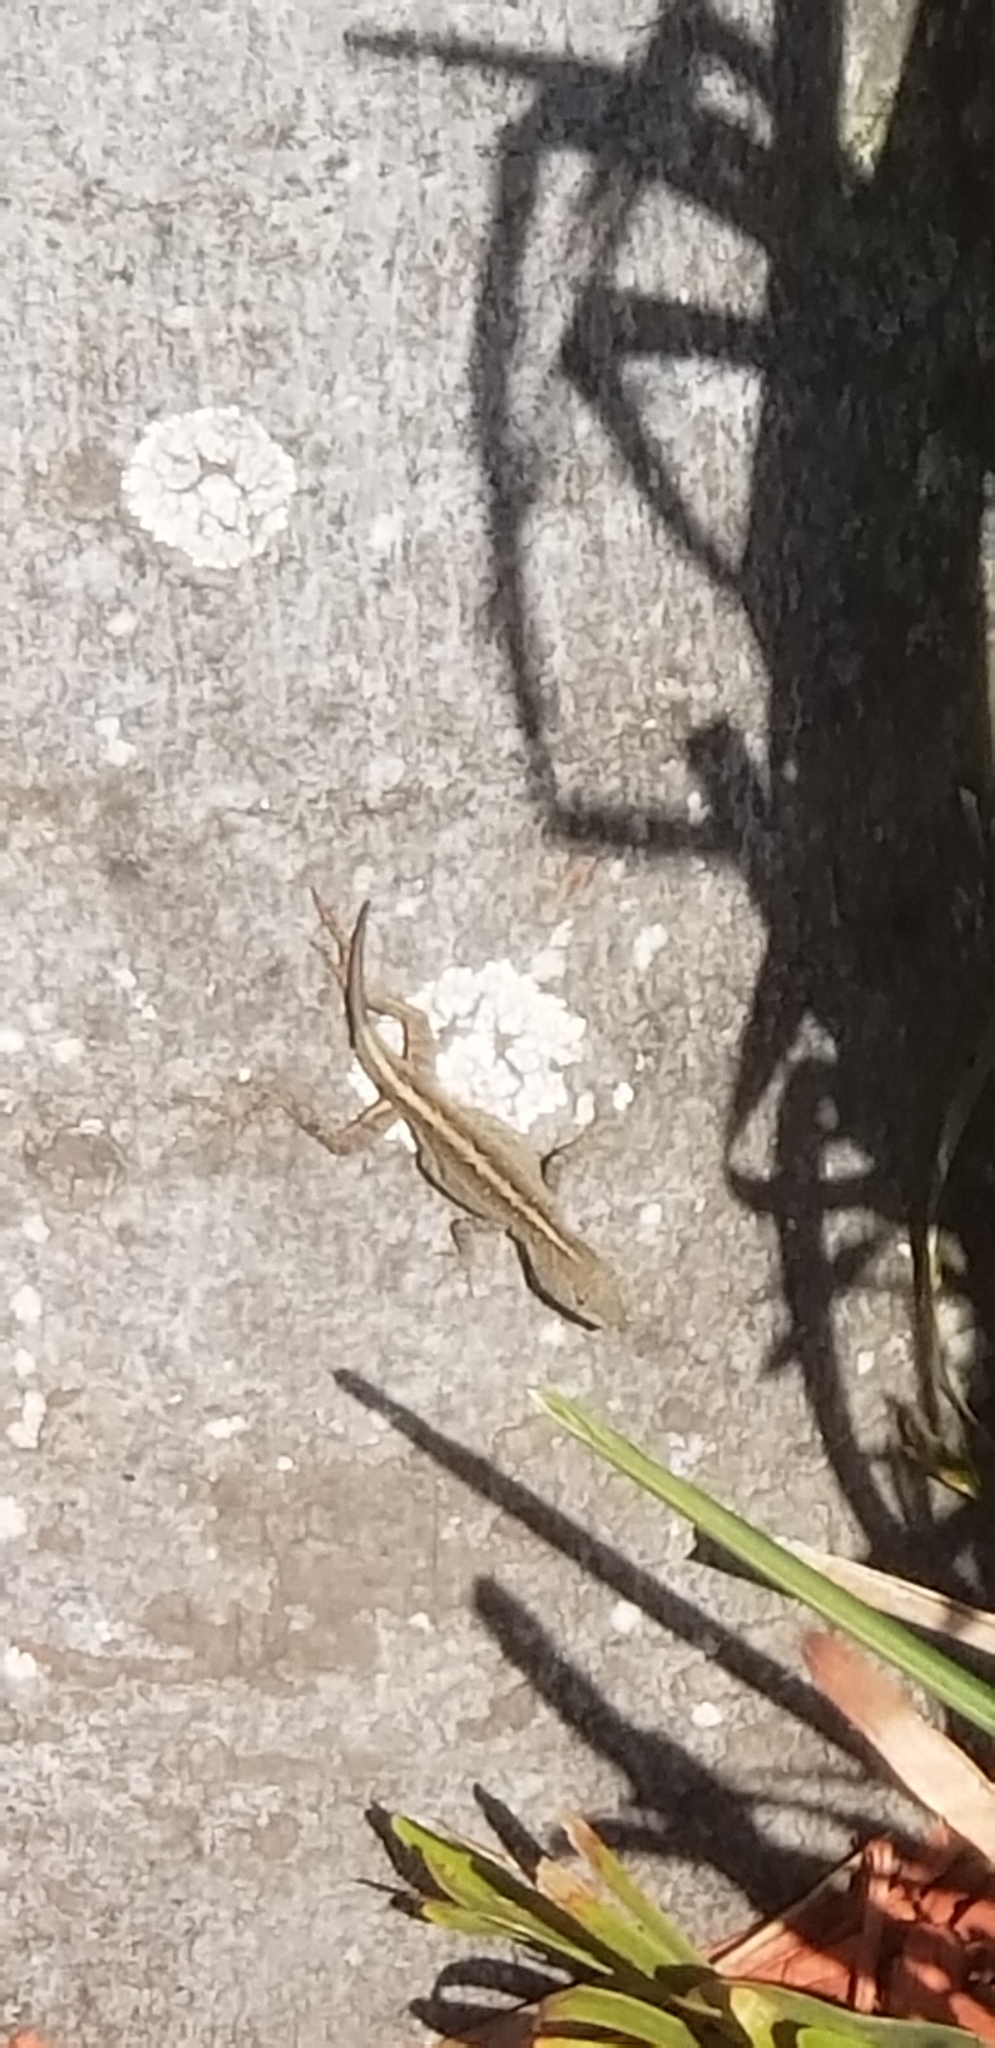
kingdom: Animalia
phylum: Chordata
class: Squamata
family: Dactyloidae
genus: Anolis
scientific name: Anolis sagrei
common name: Brown anole
